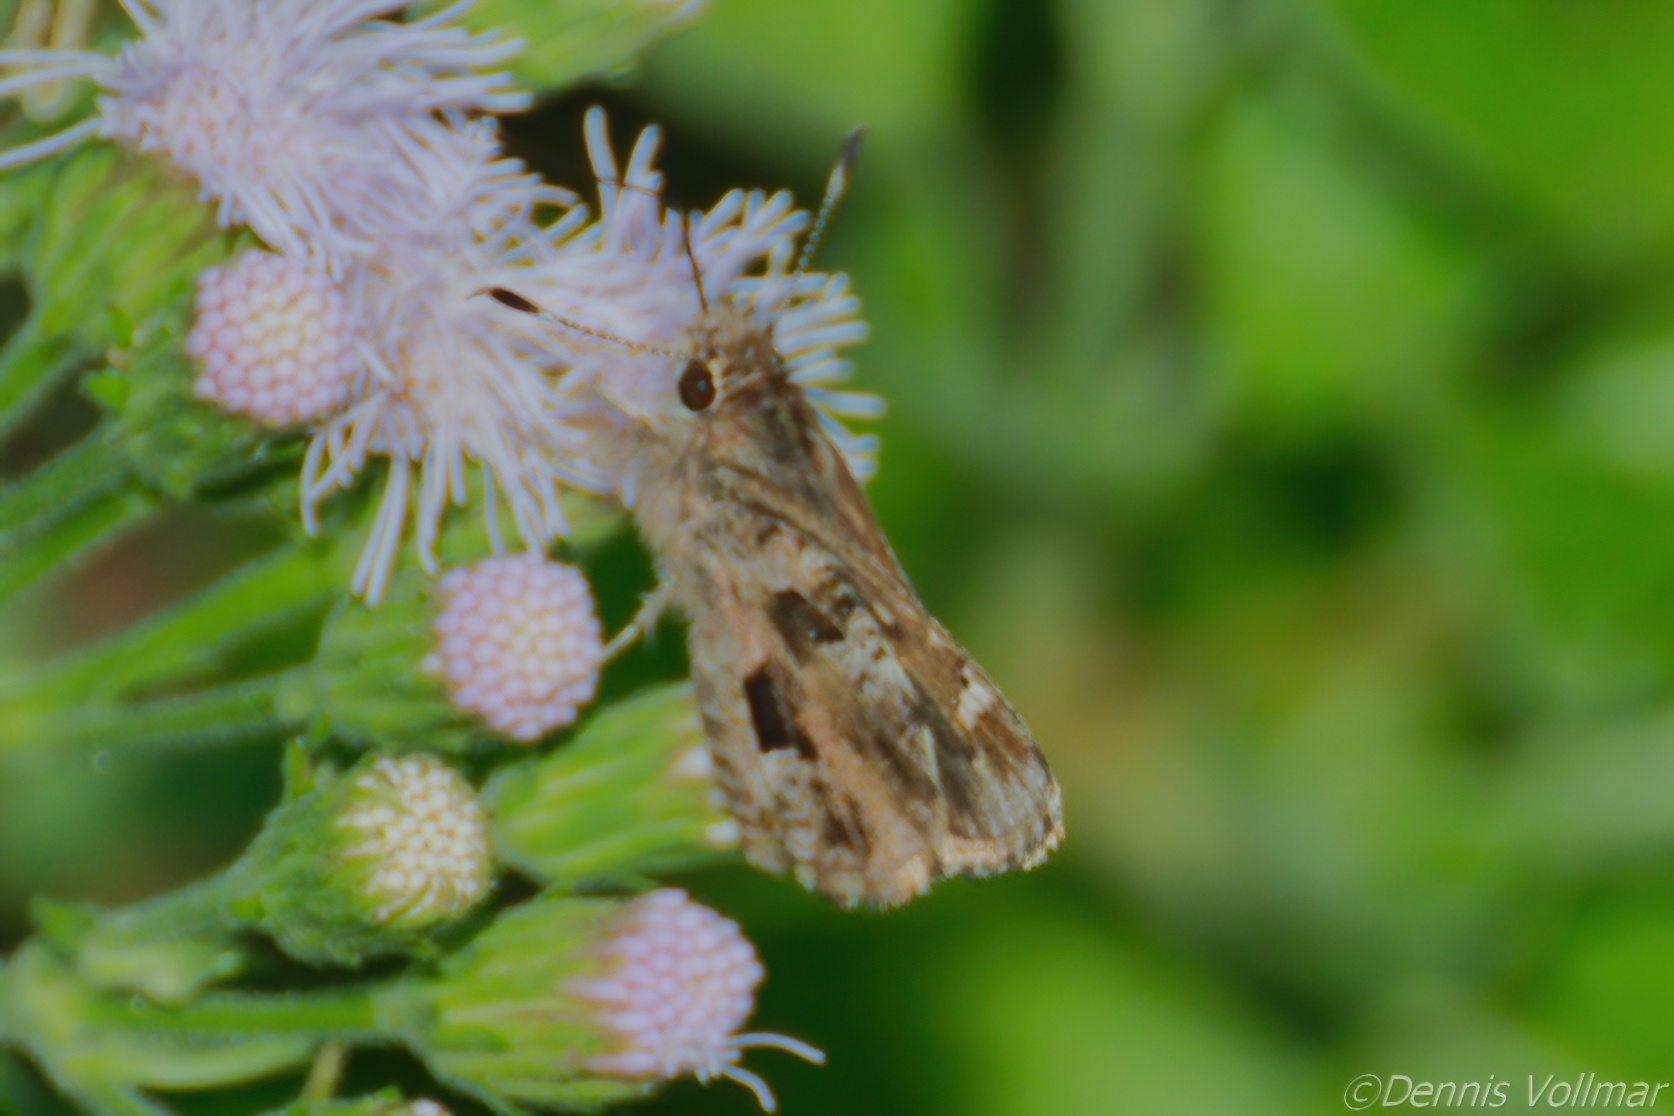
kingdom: Animalia
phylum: Arthropoda
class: Insecta
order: Lepidoptera
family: Hesperiidae
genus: Mastor
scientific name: Mastor nysa
